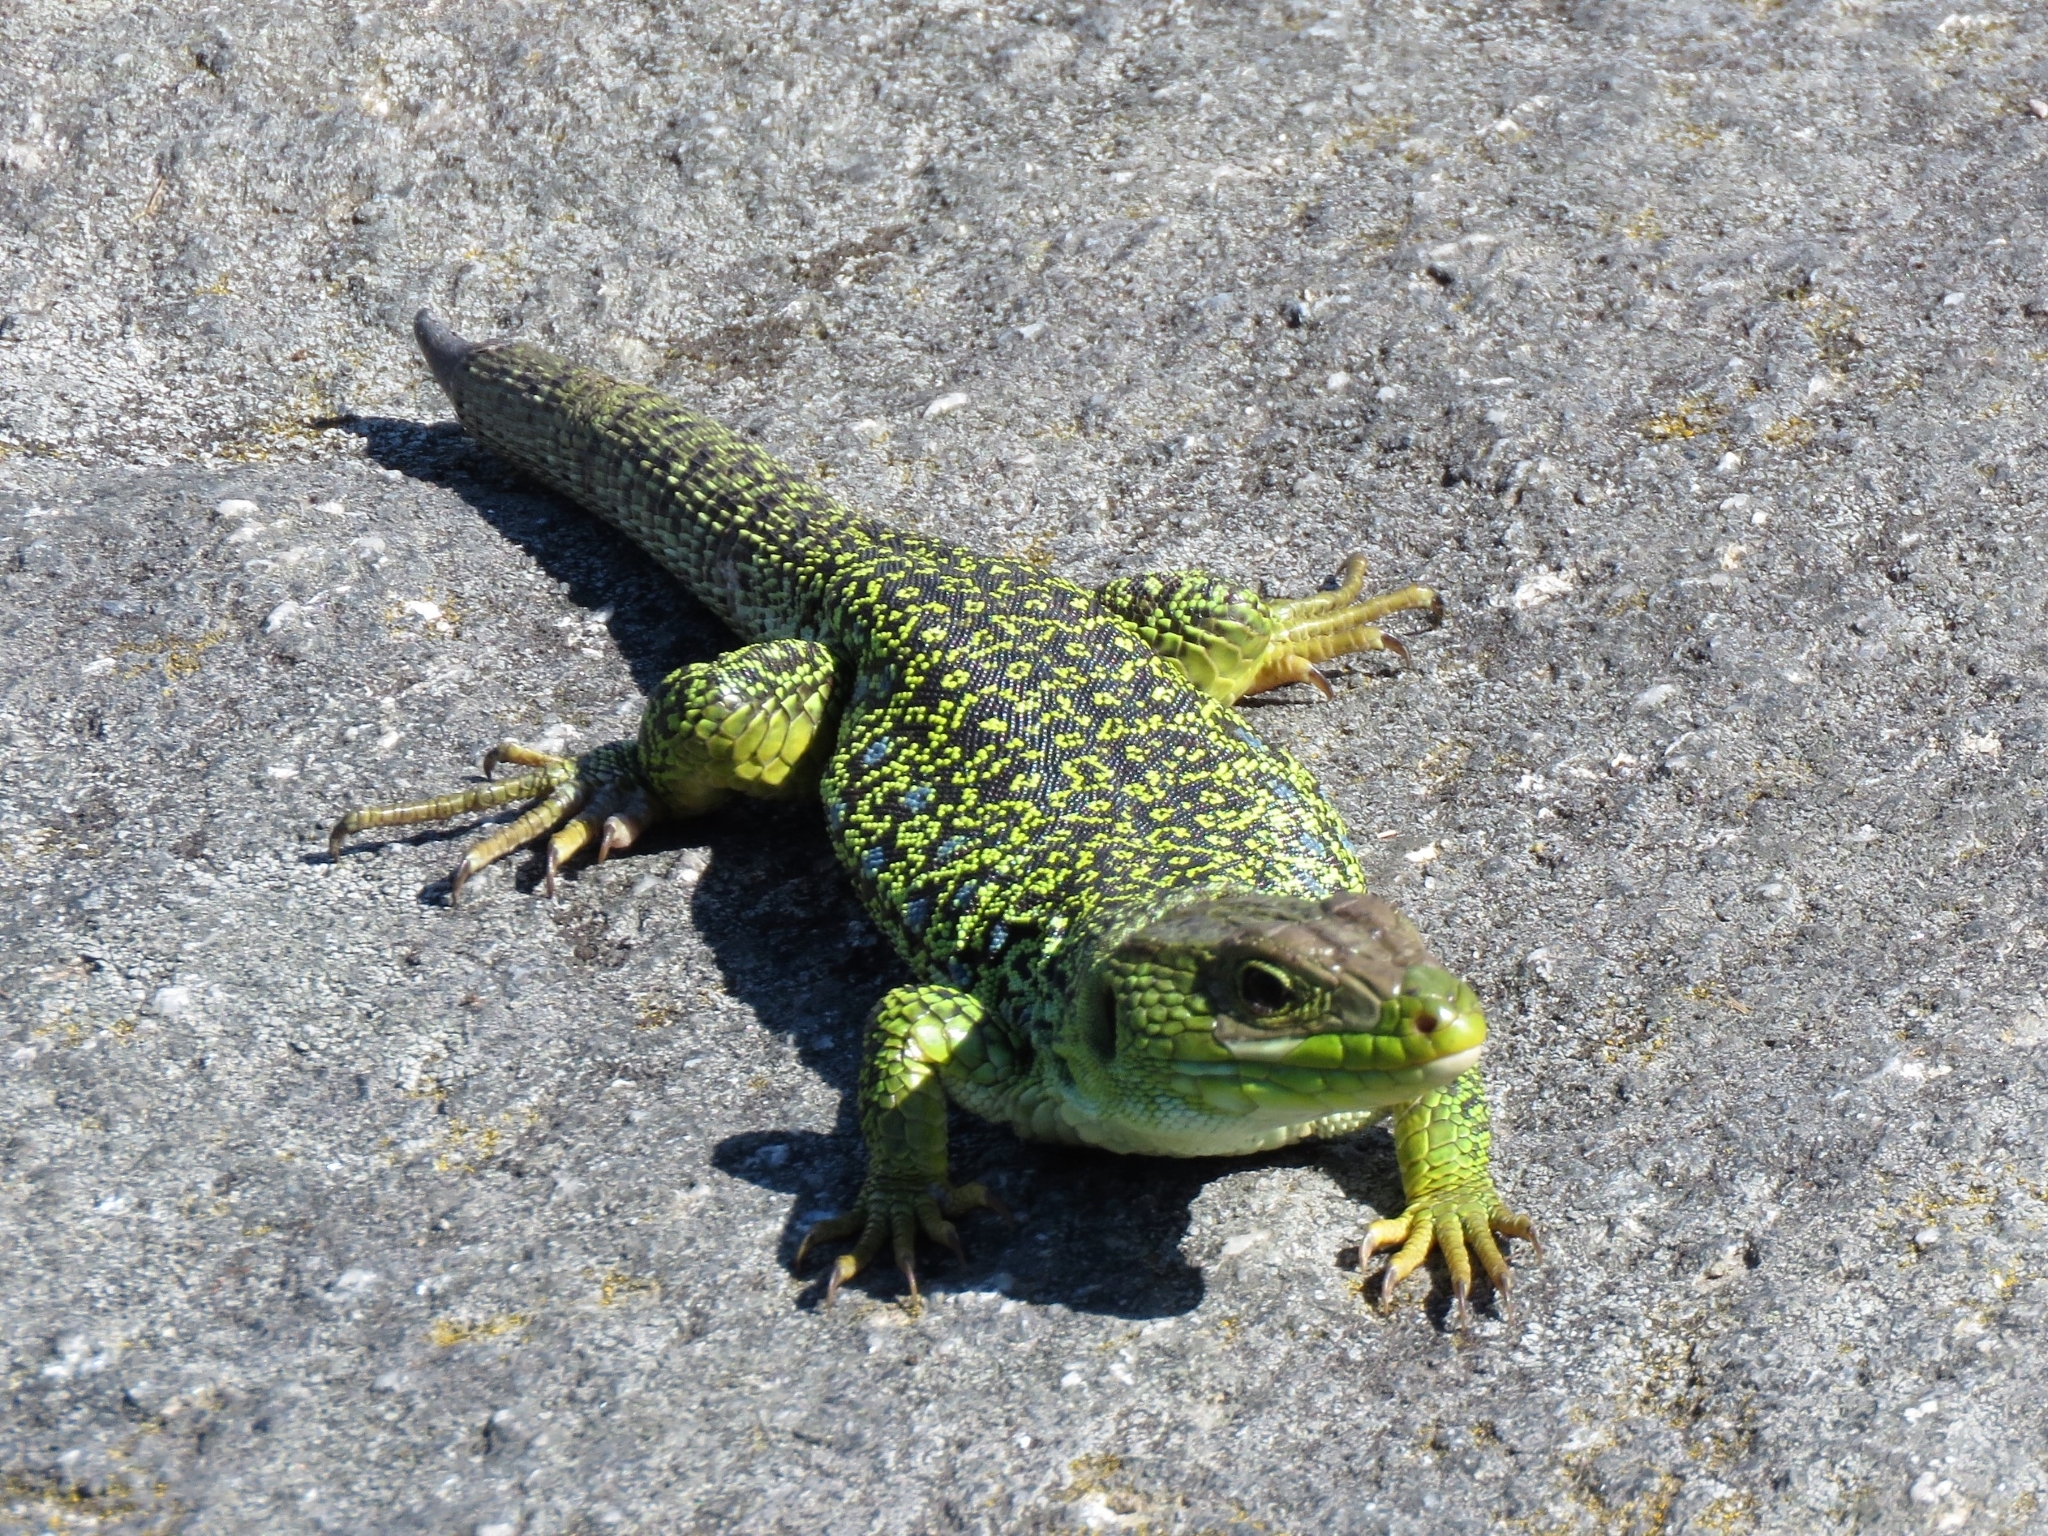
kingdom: Animalia
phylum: Chordata
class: Squamata
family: Lacertidae
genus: Timon
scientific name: Timon lepidus
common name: Ocellated lizard
